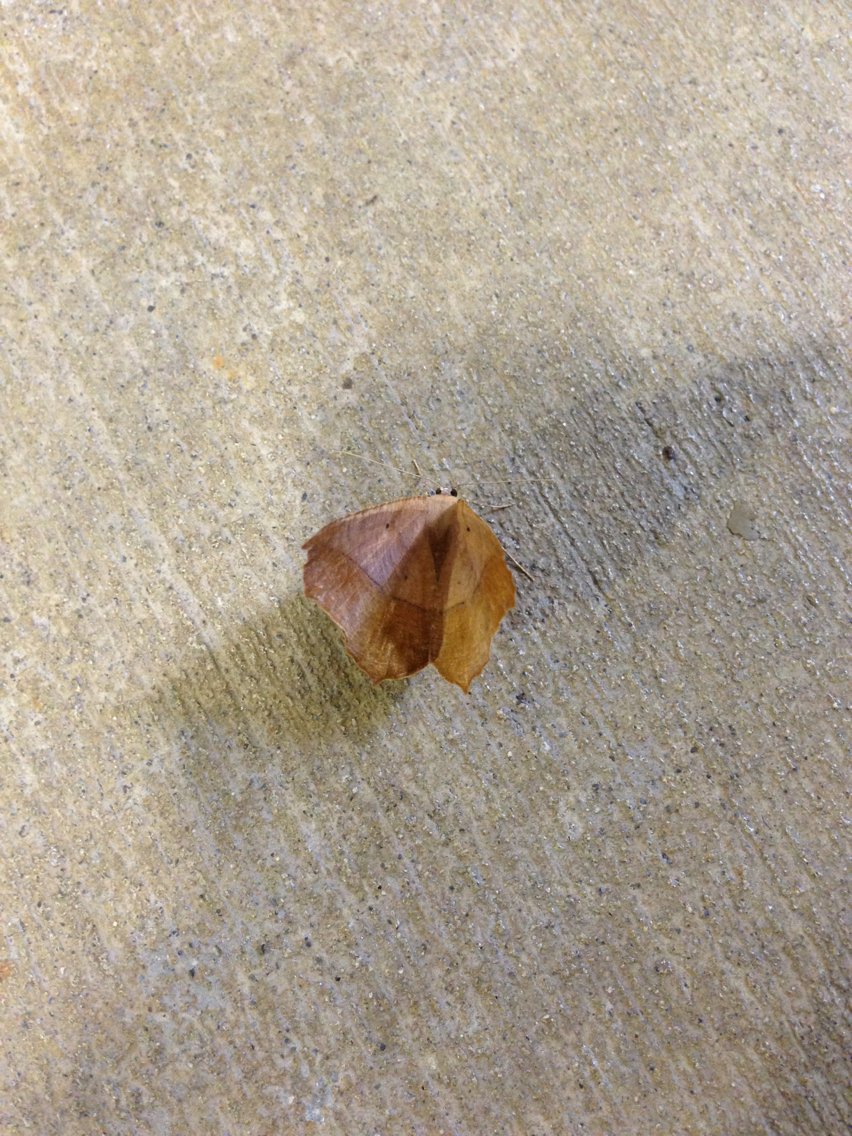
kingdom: Animalia
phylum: Arthropoda
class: Insecta
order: Lepidoptera
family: Geometridae
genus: Prochoerodes
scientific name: Prochoerodes lineola
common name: Large maple spanworm
